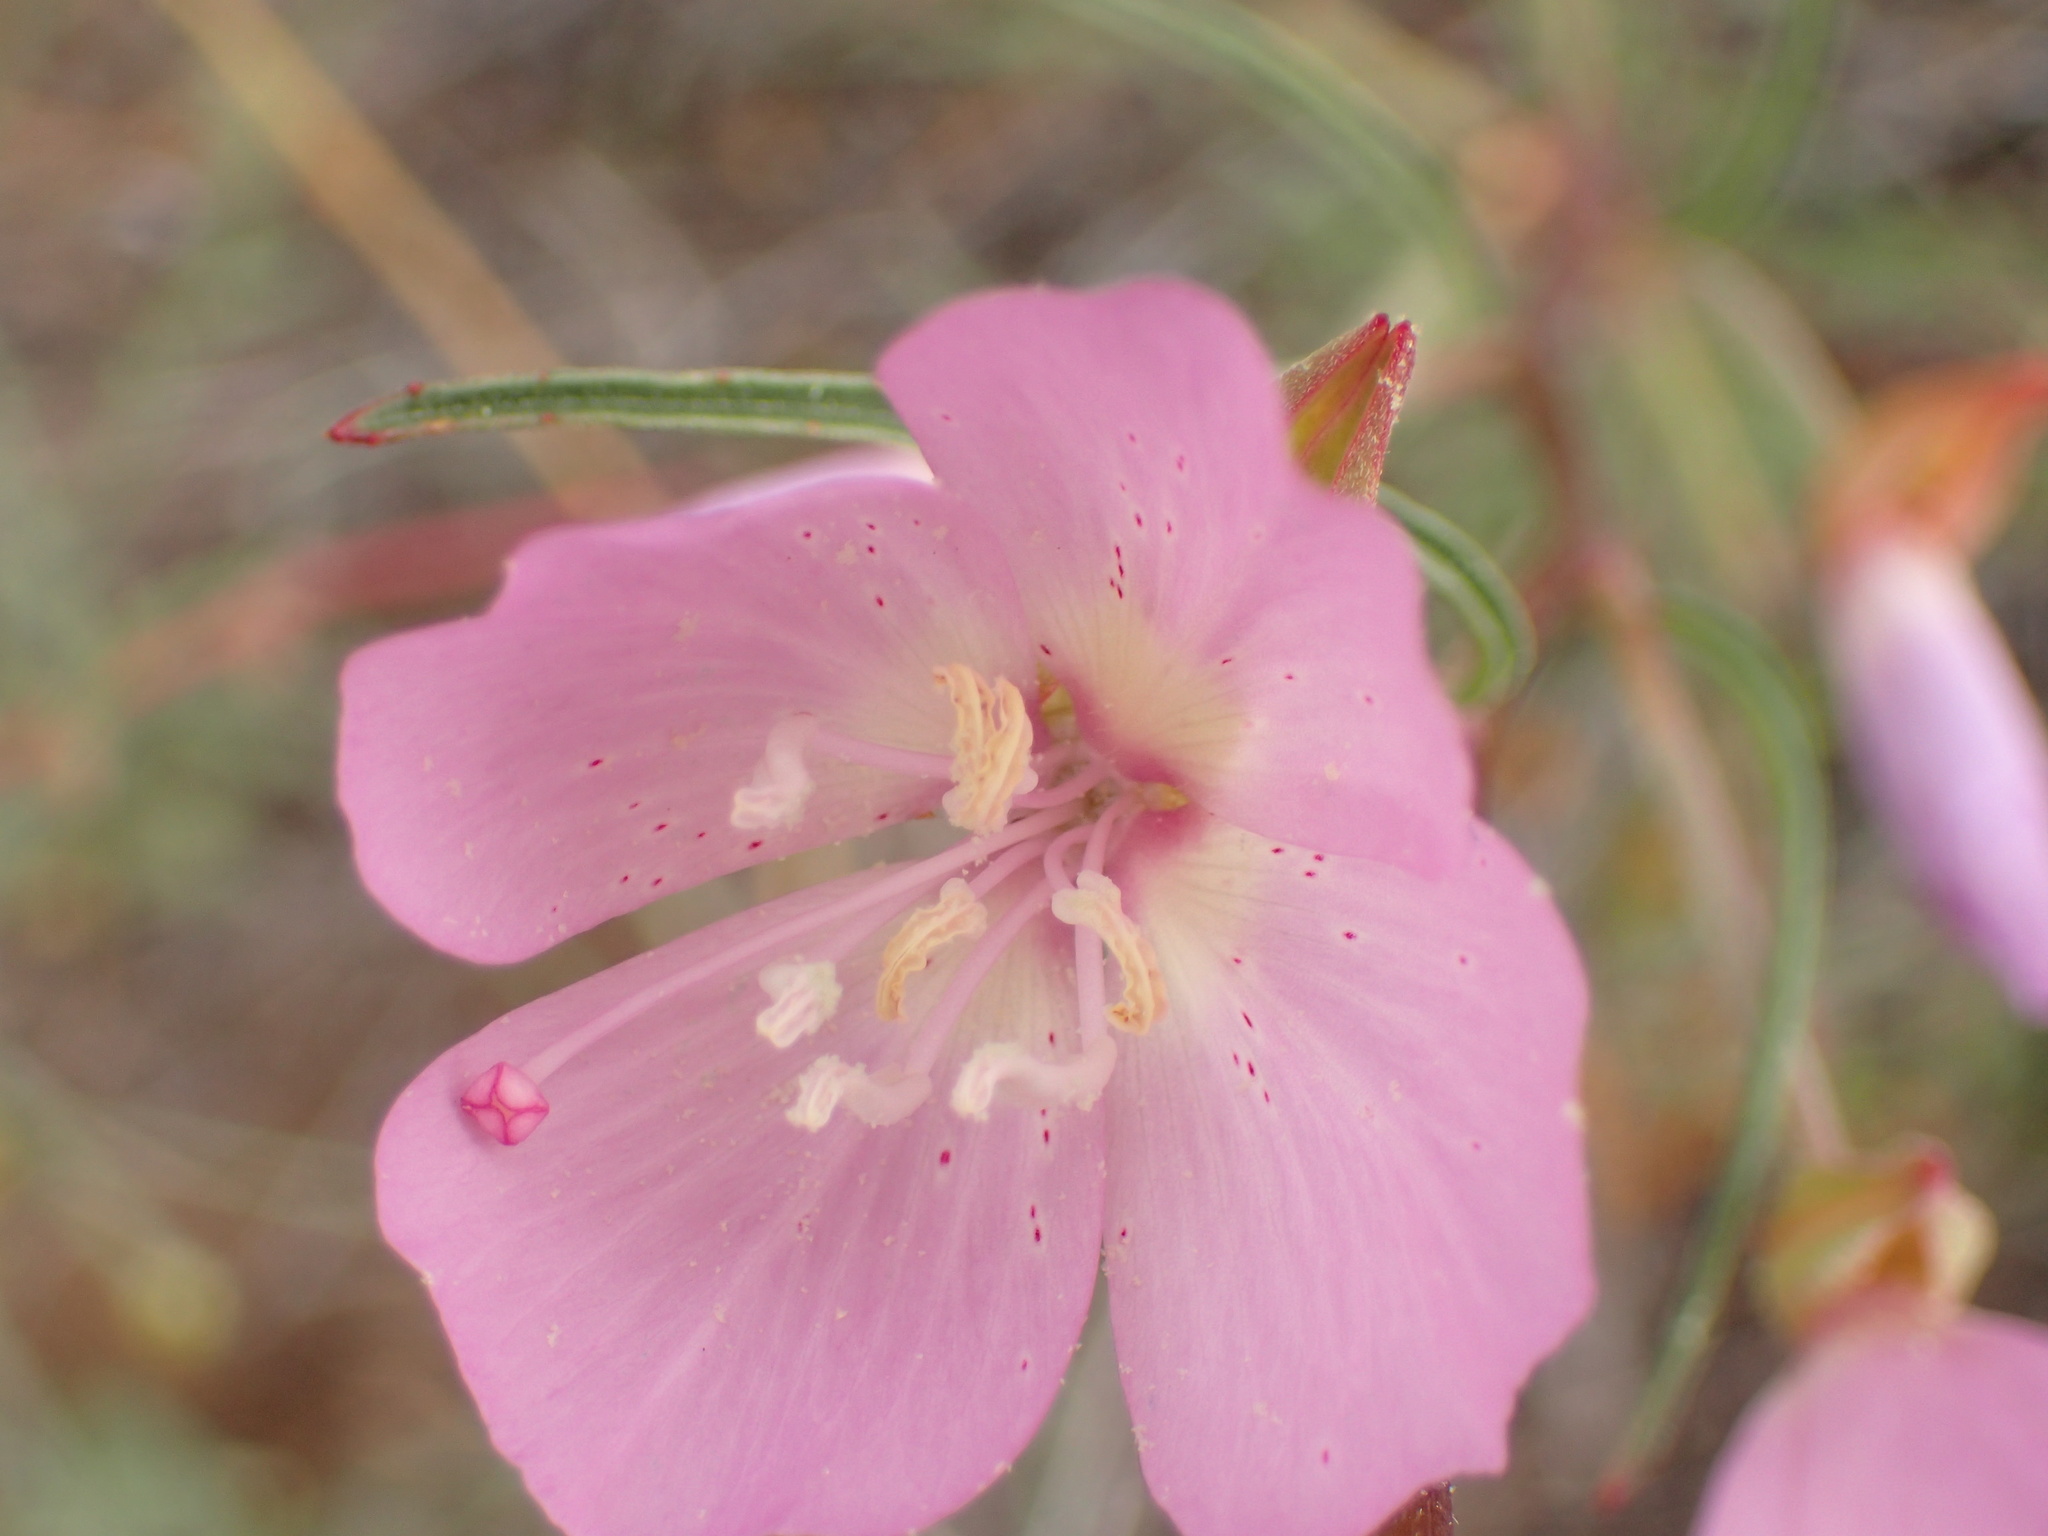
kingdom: Plantae
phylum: Tracheophyta
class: Magnoliopsida
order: Myrtales
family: Onagraceae
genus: Clarkia
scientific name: Clarkia bottae
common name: Punch-bowl godetia
